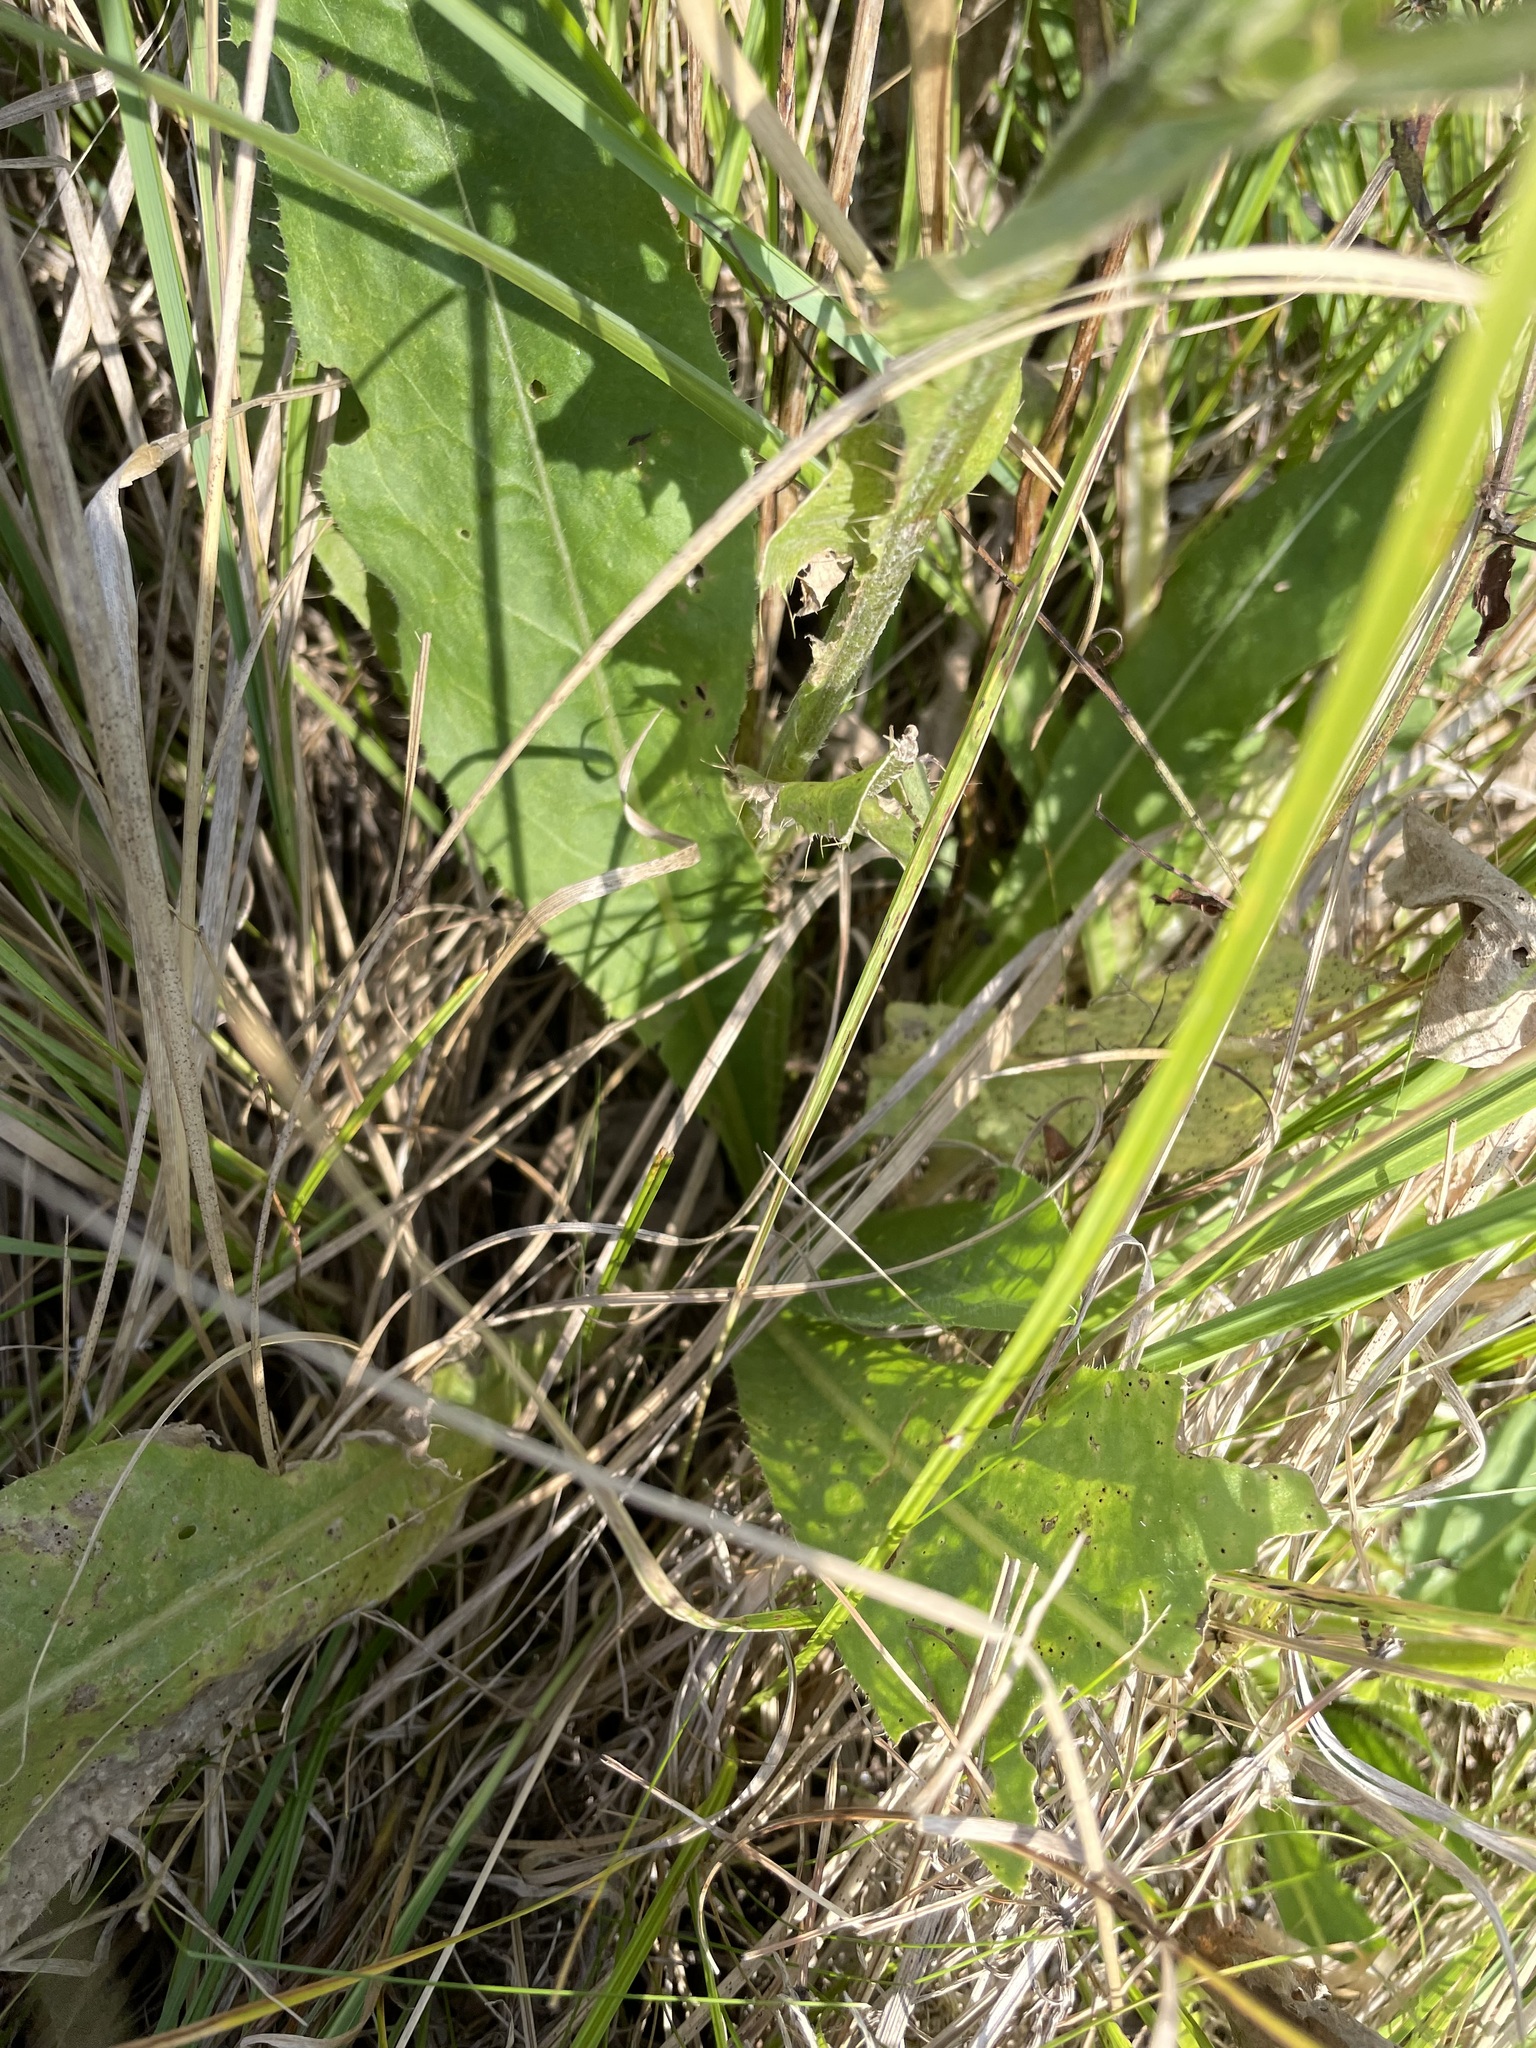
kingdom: Plantae
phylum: Tracheophyta
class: Magnoliopsida
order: Asterales
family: Asteraceae
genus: Cirsium
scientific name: Cirsium canum
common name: Queen anne's thistle
